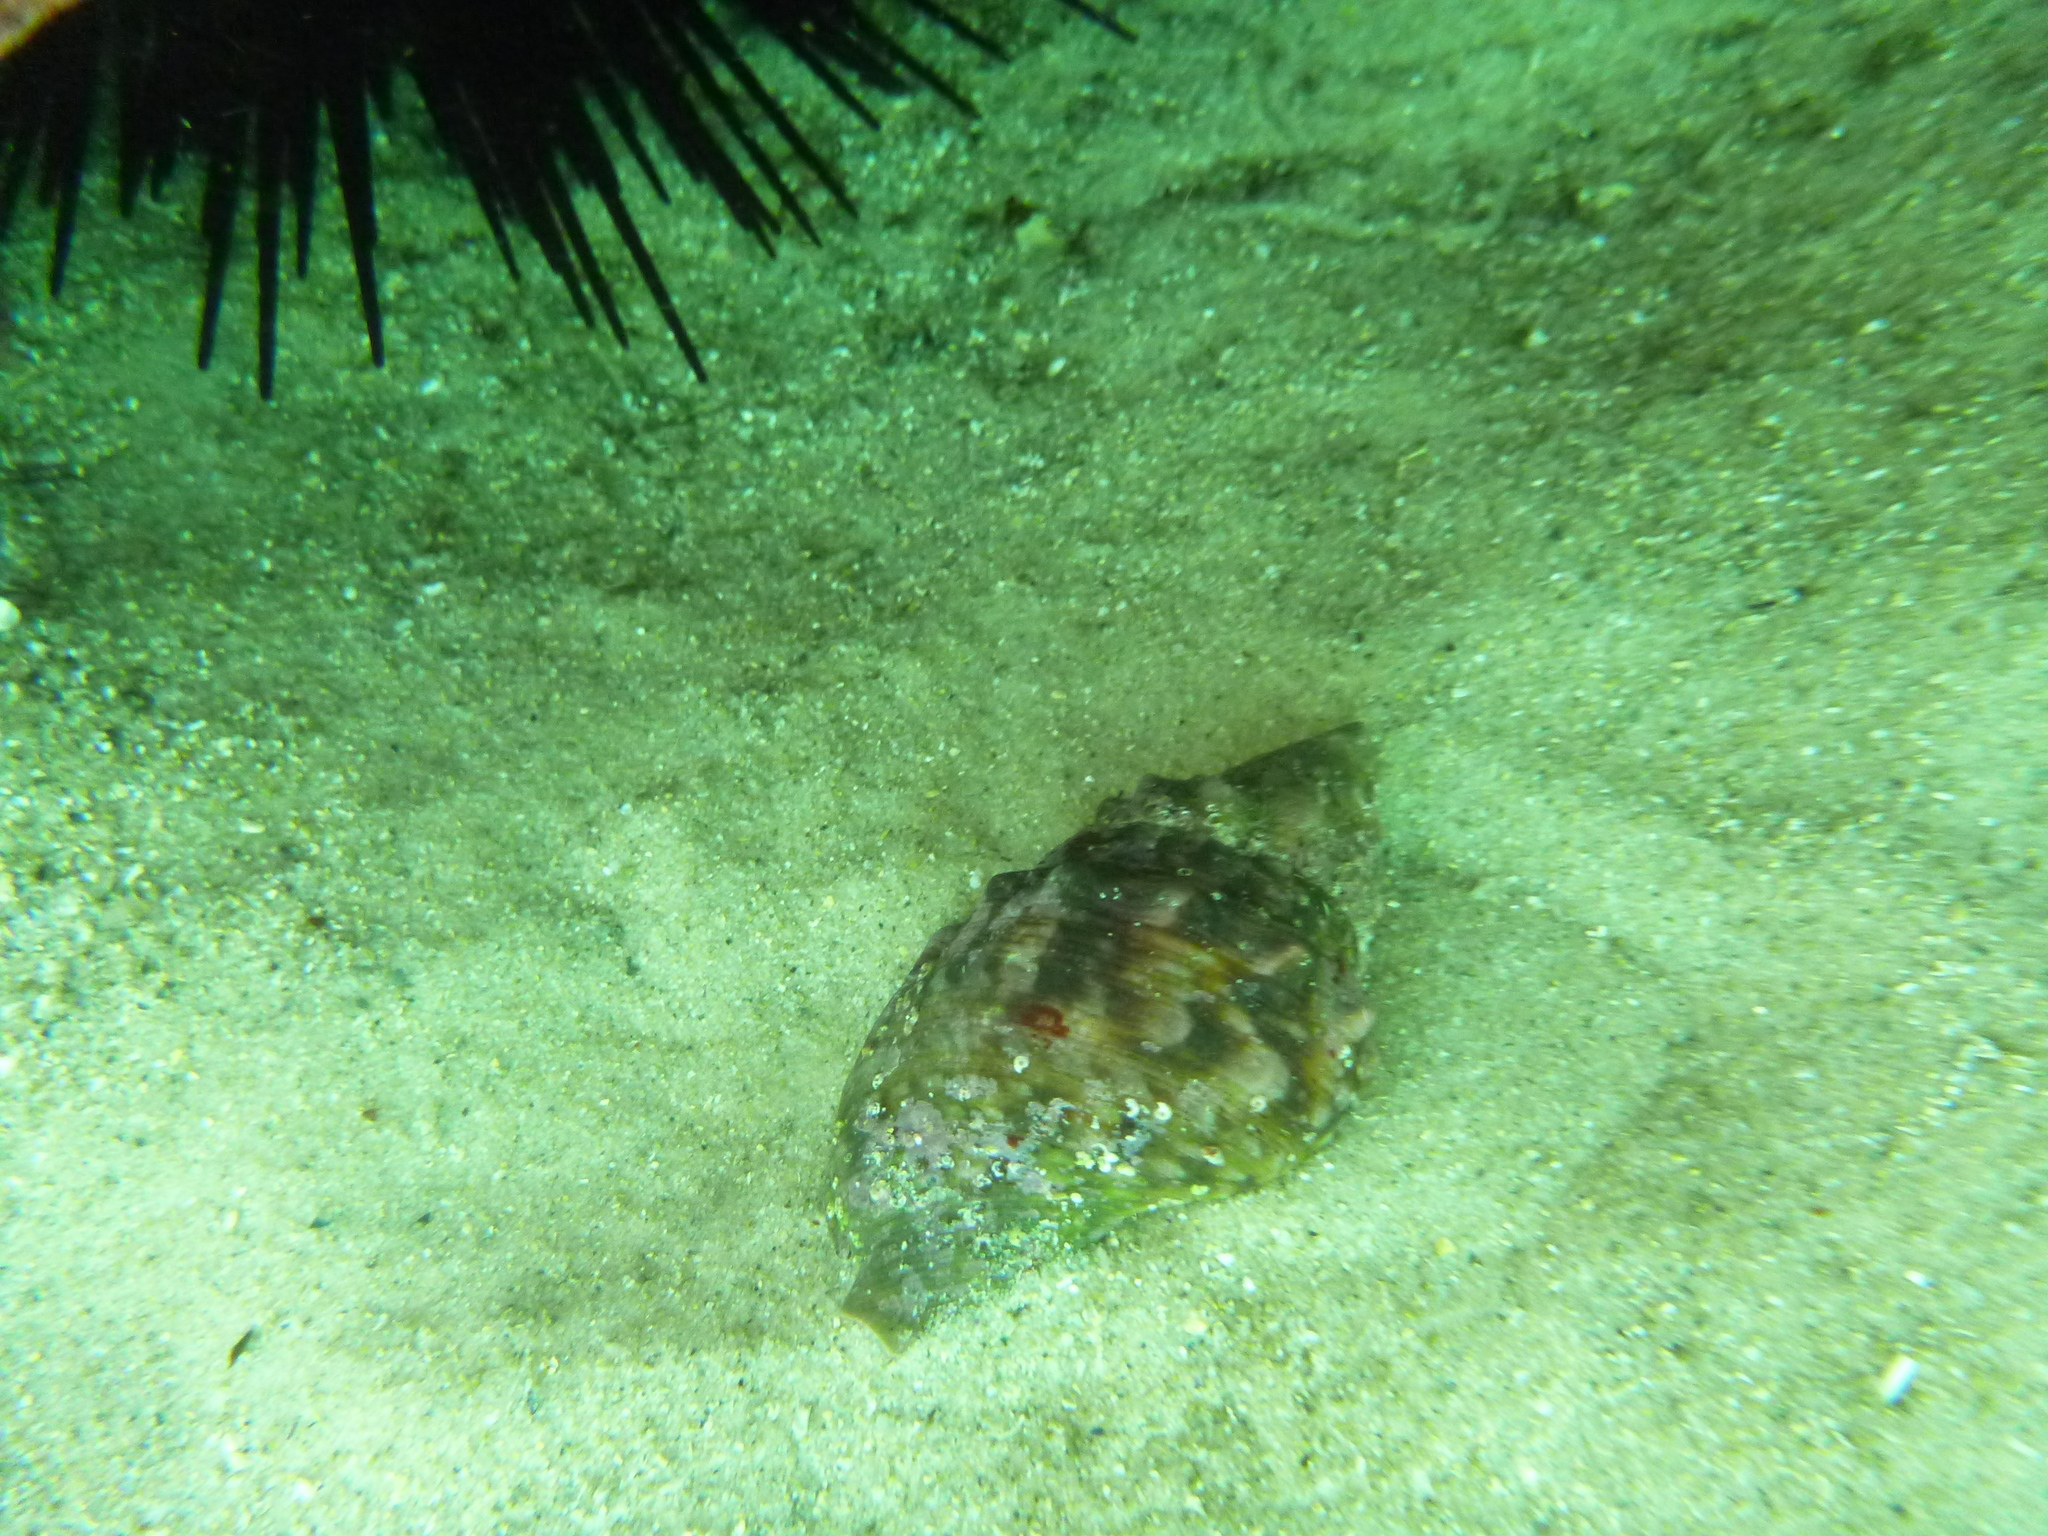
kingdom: Animalia
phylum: Mollusca
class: Gastropoda
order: Littorinimorpha
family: Charoniidae
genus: Charonia
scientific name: Charonia lampas
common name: Knobbed triton
